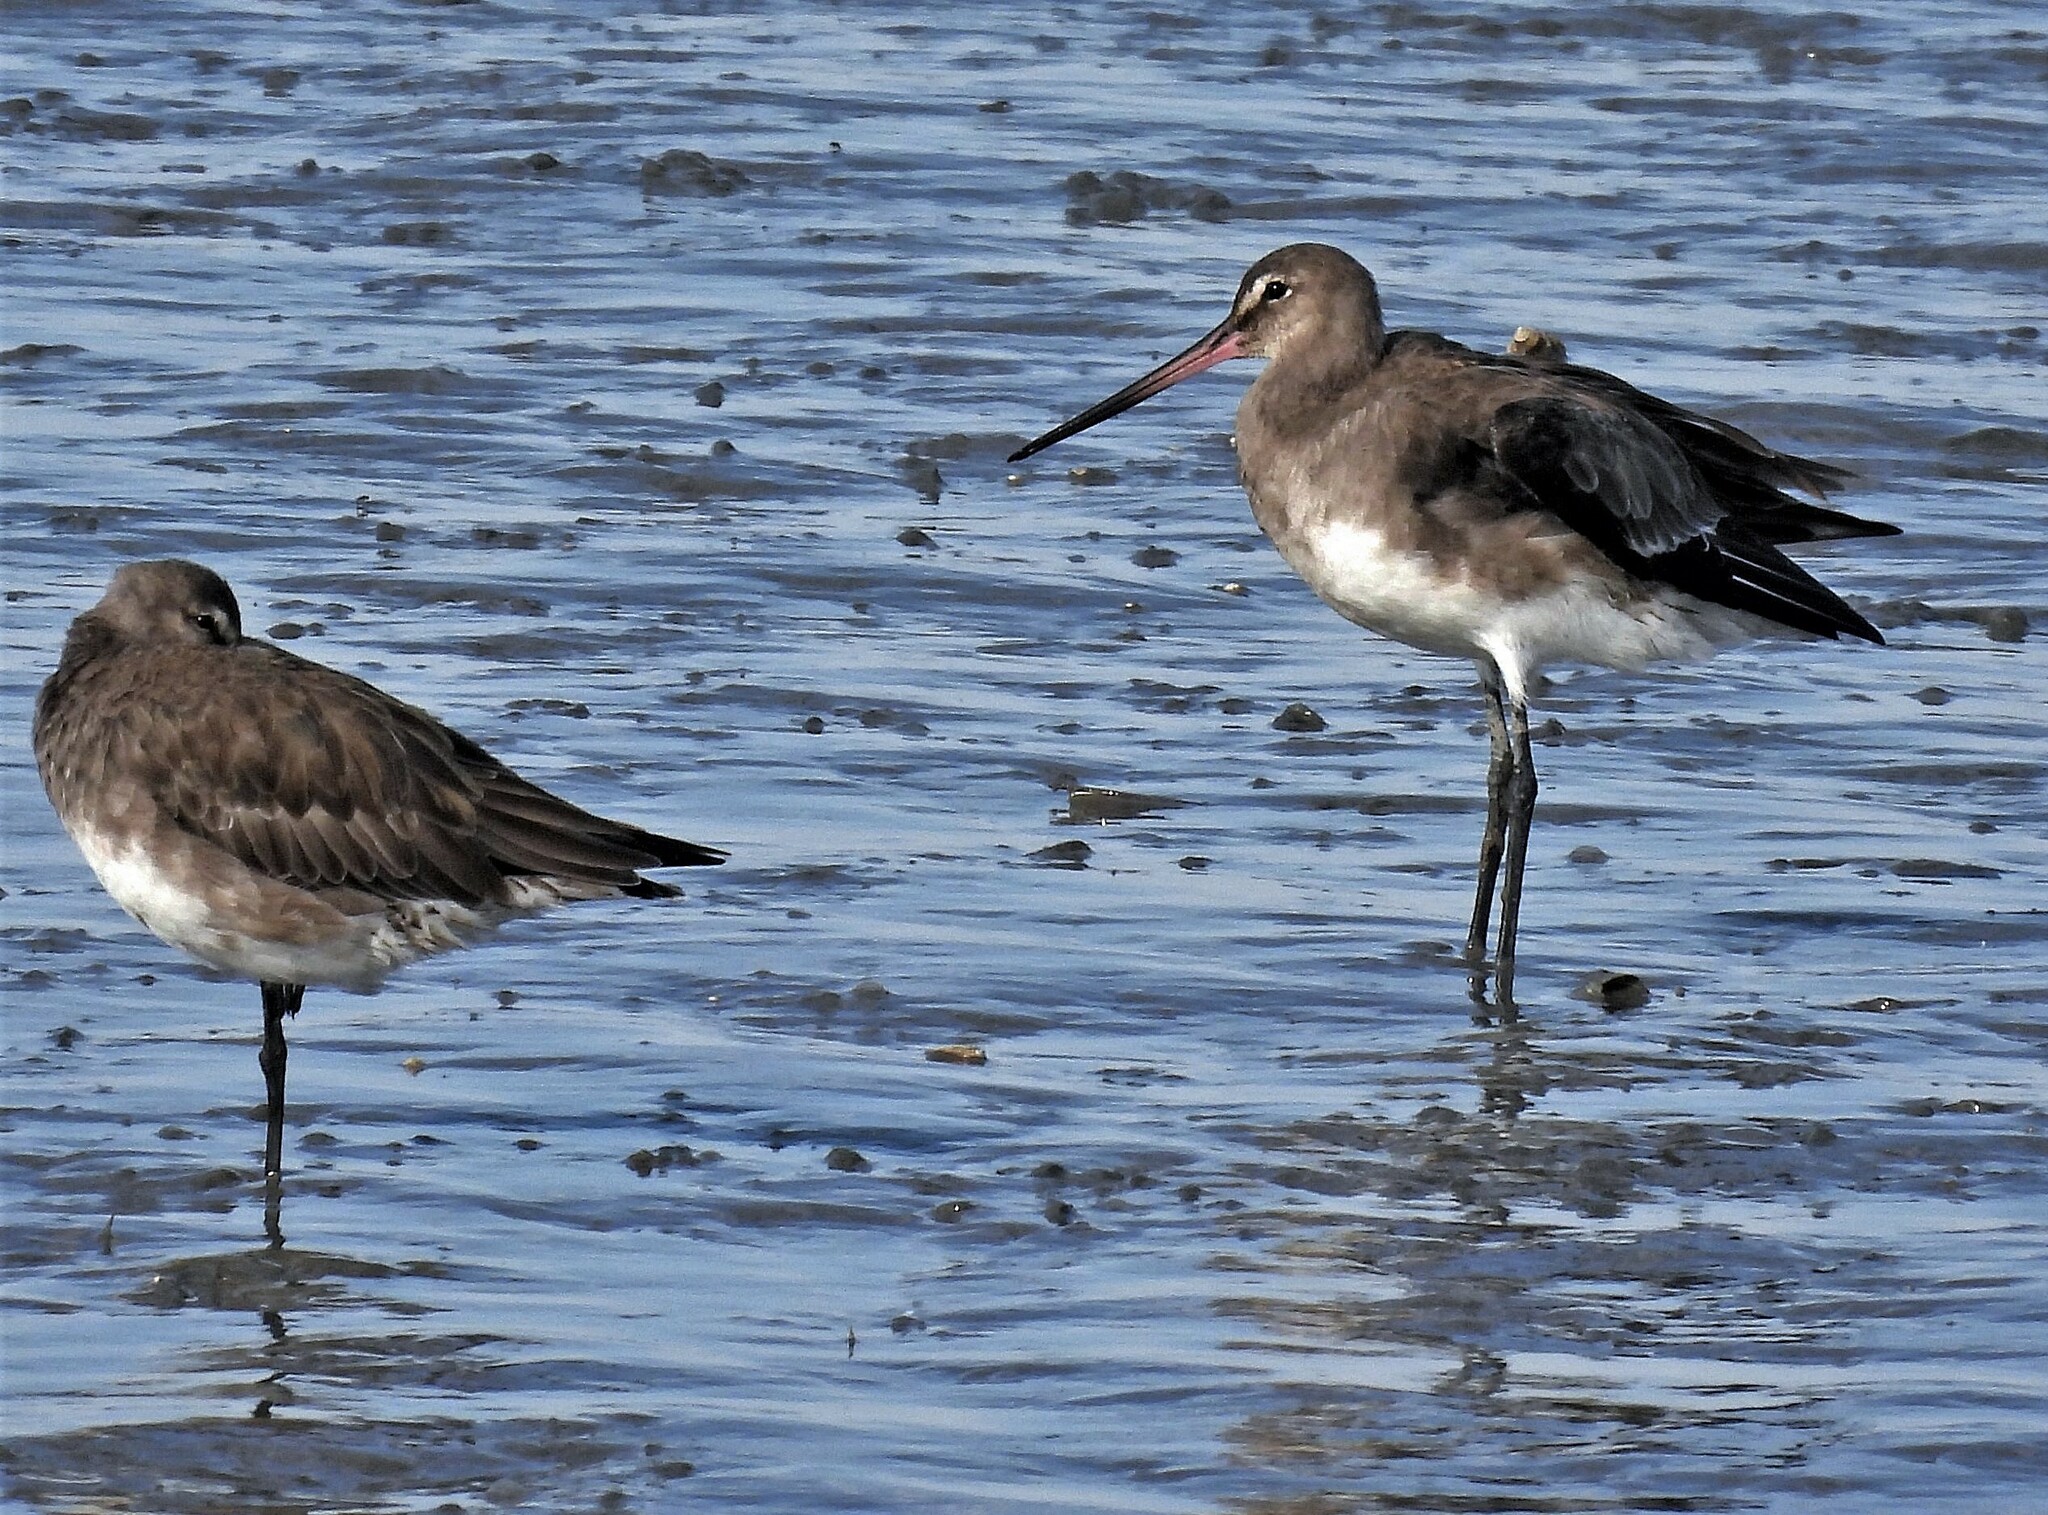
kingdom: Animalia
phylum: Chordata
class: Aves
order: Charadriiformes
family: Scolopacidae
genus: Limosa
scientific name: Limosa haemastica
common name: Hudsonian godwit
